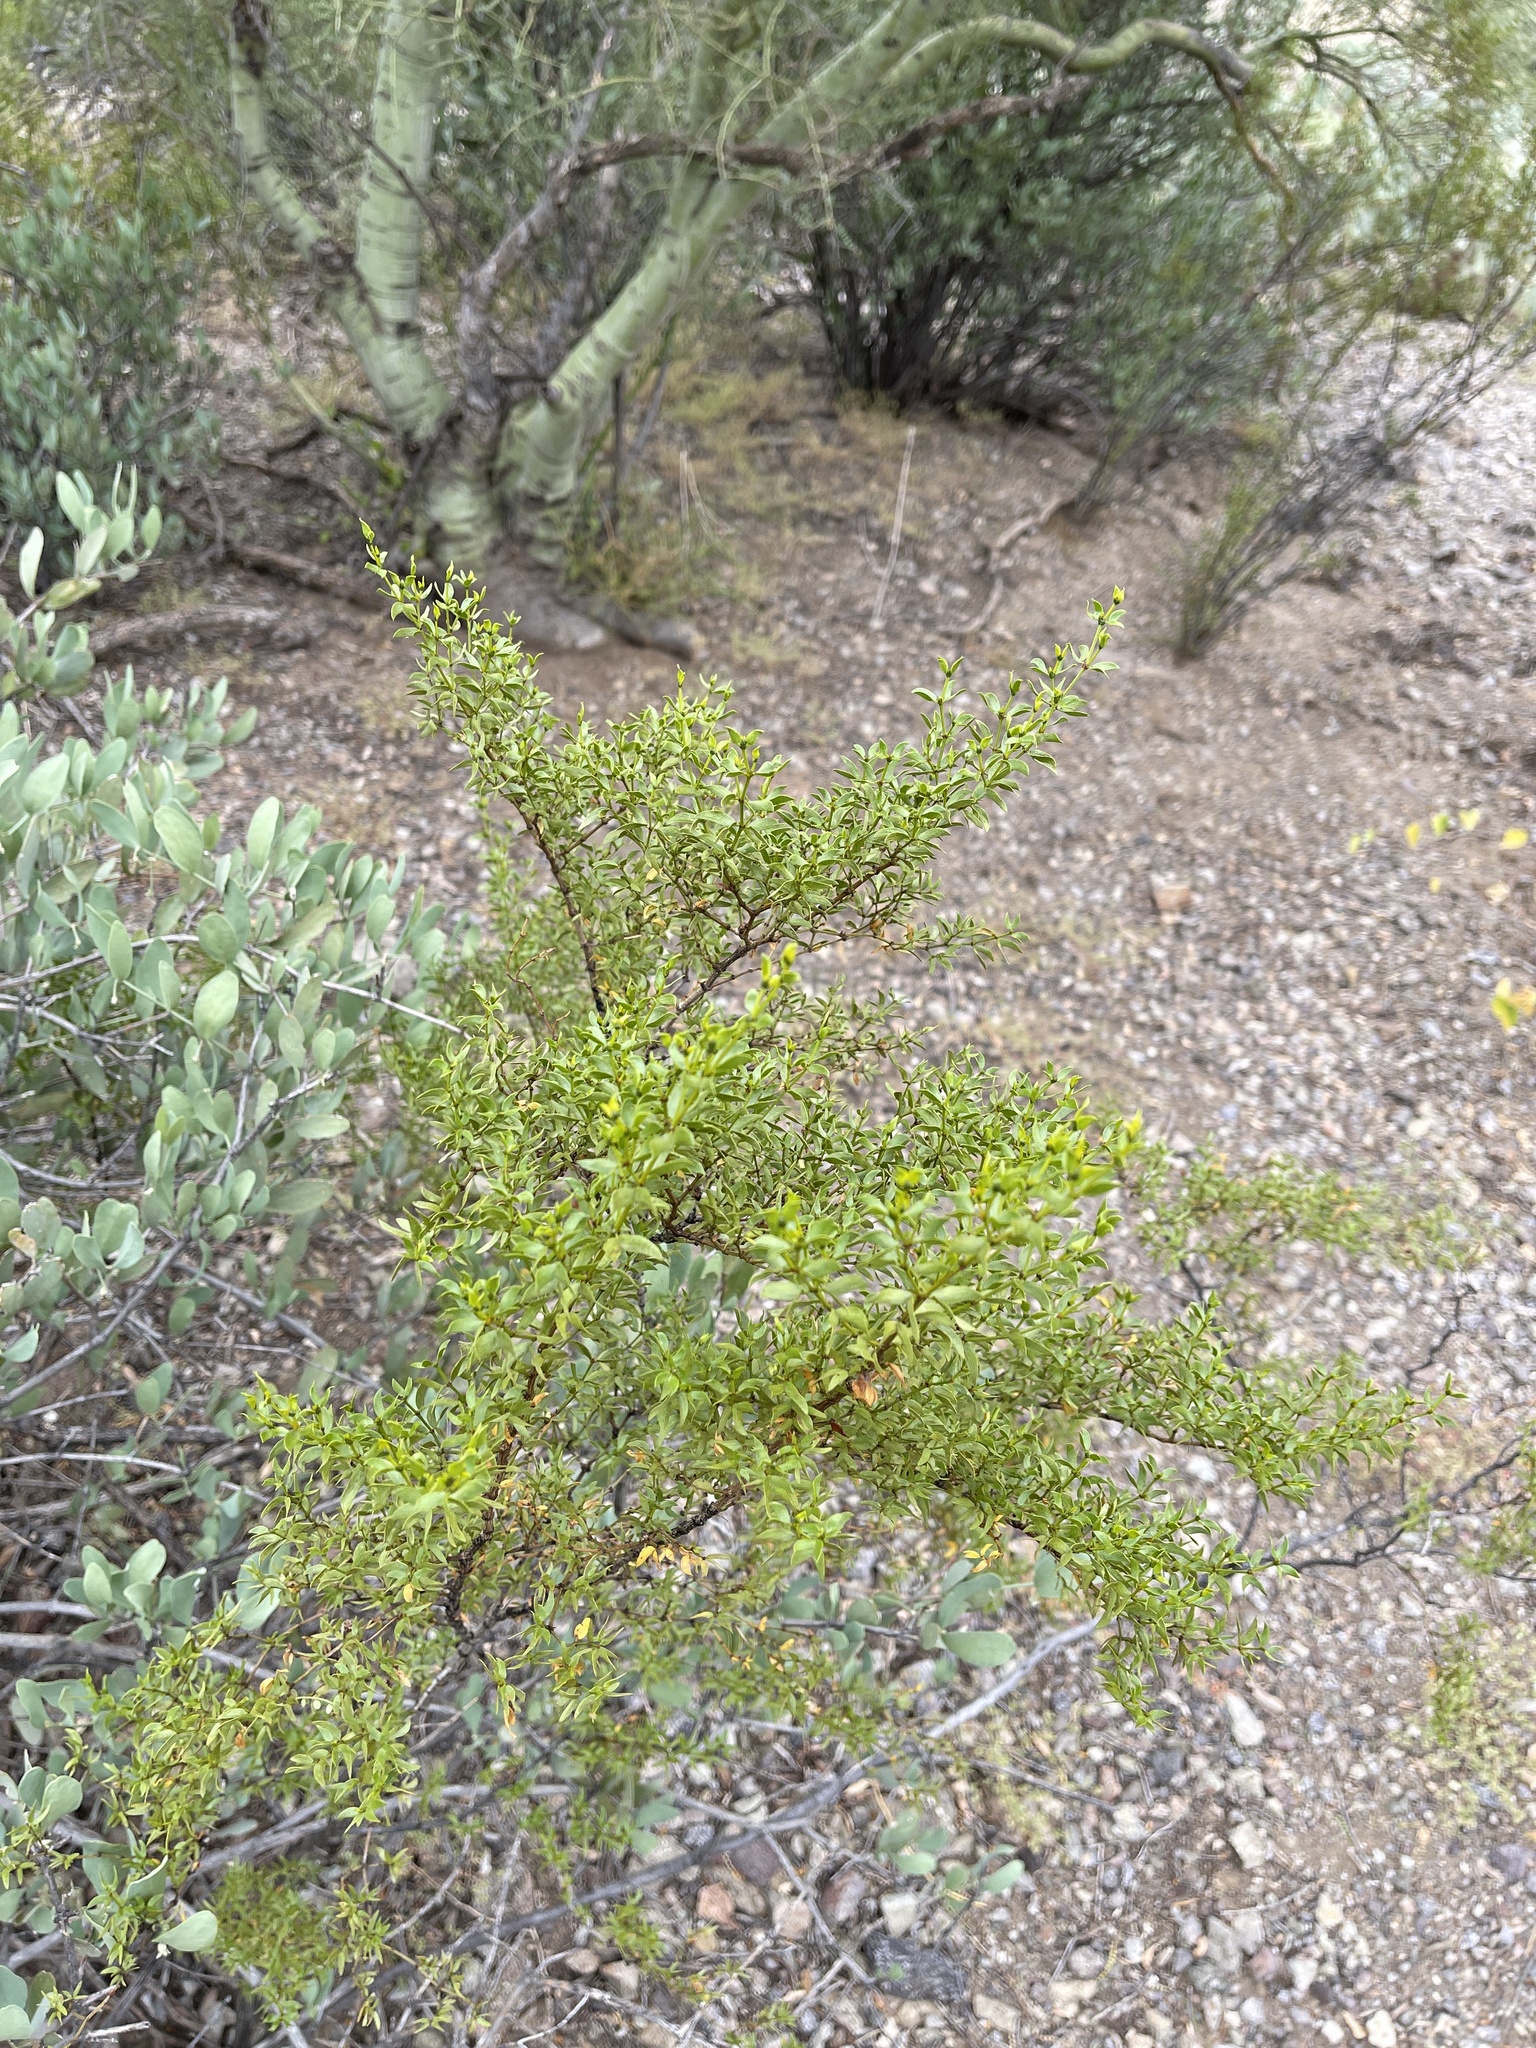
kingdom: Plantae
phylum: Tracheophyta
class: Magnoliopsida
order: Zygophyllales
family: Zygophyllaceae
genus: Larrea
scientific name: Larrea tridentata
